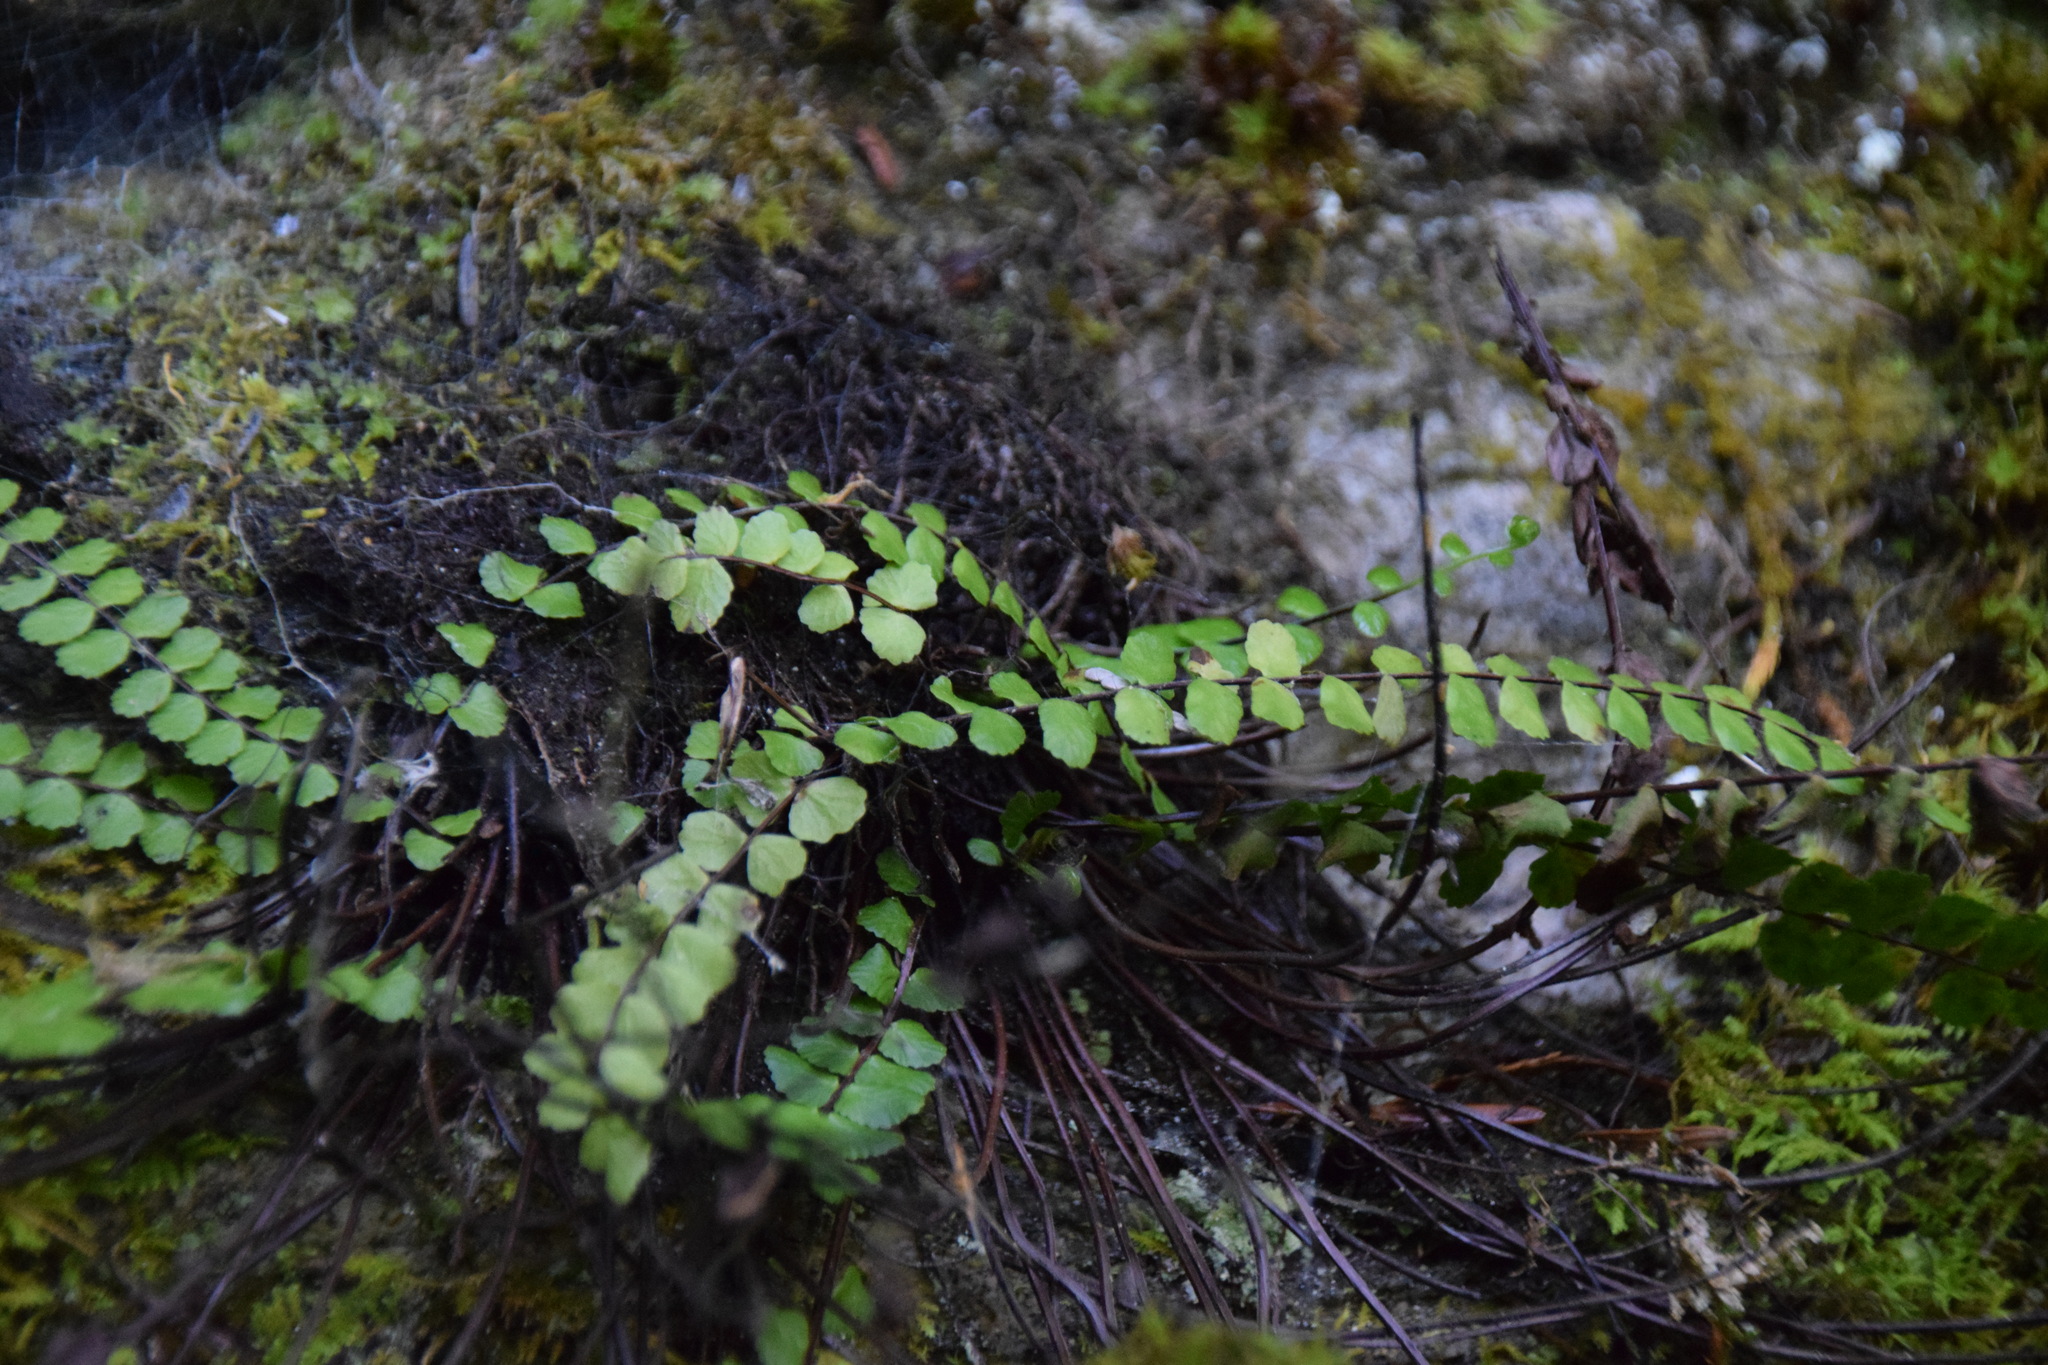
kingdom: Plantae
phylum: Tracheophyta
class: Polypodiopsida
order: Polypodiales
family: Aspleniaceae
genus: Asplenium
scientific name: Asplenium trichomanes
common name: Maidenhair spleenwort
